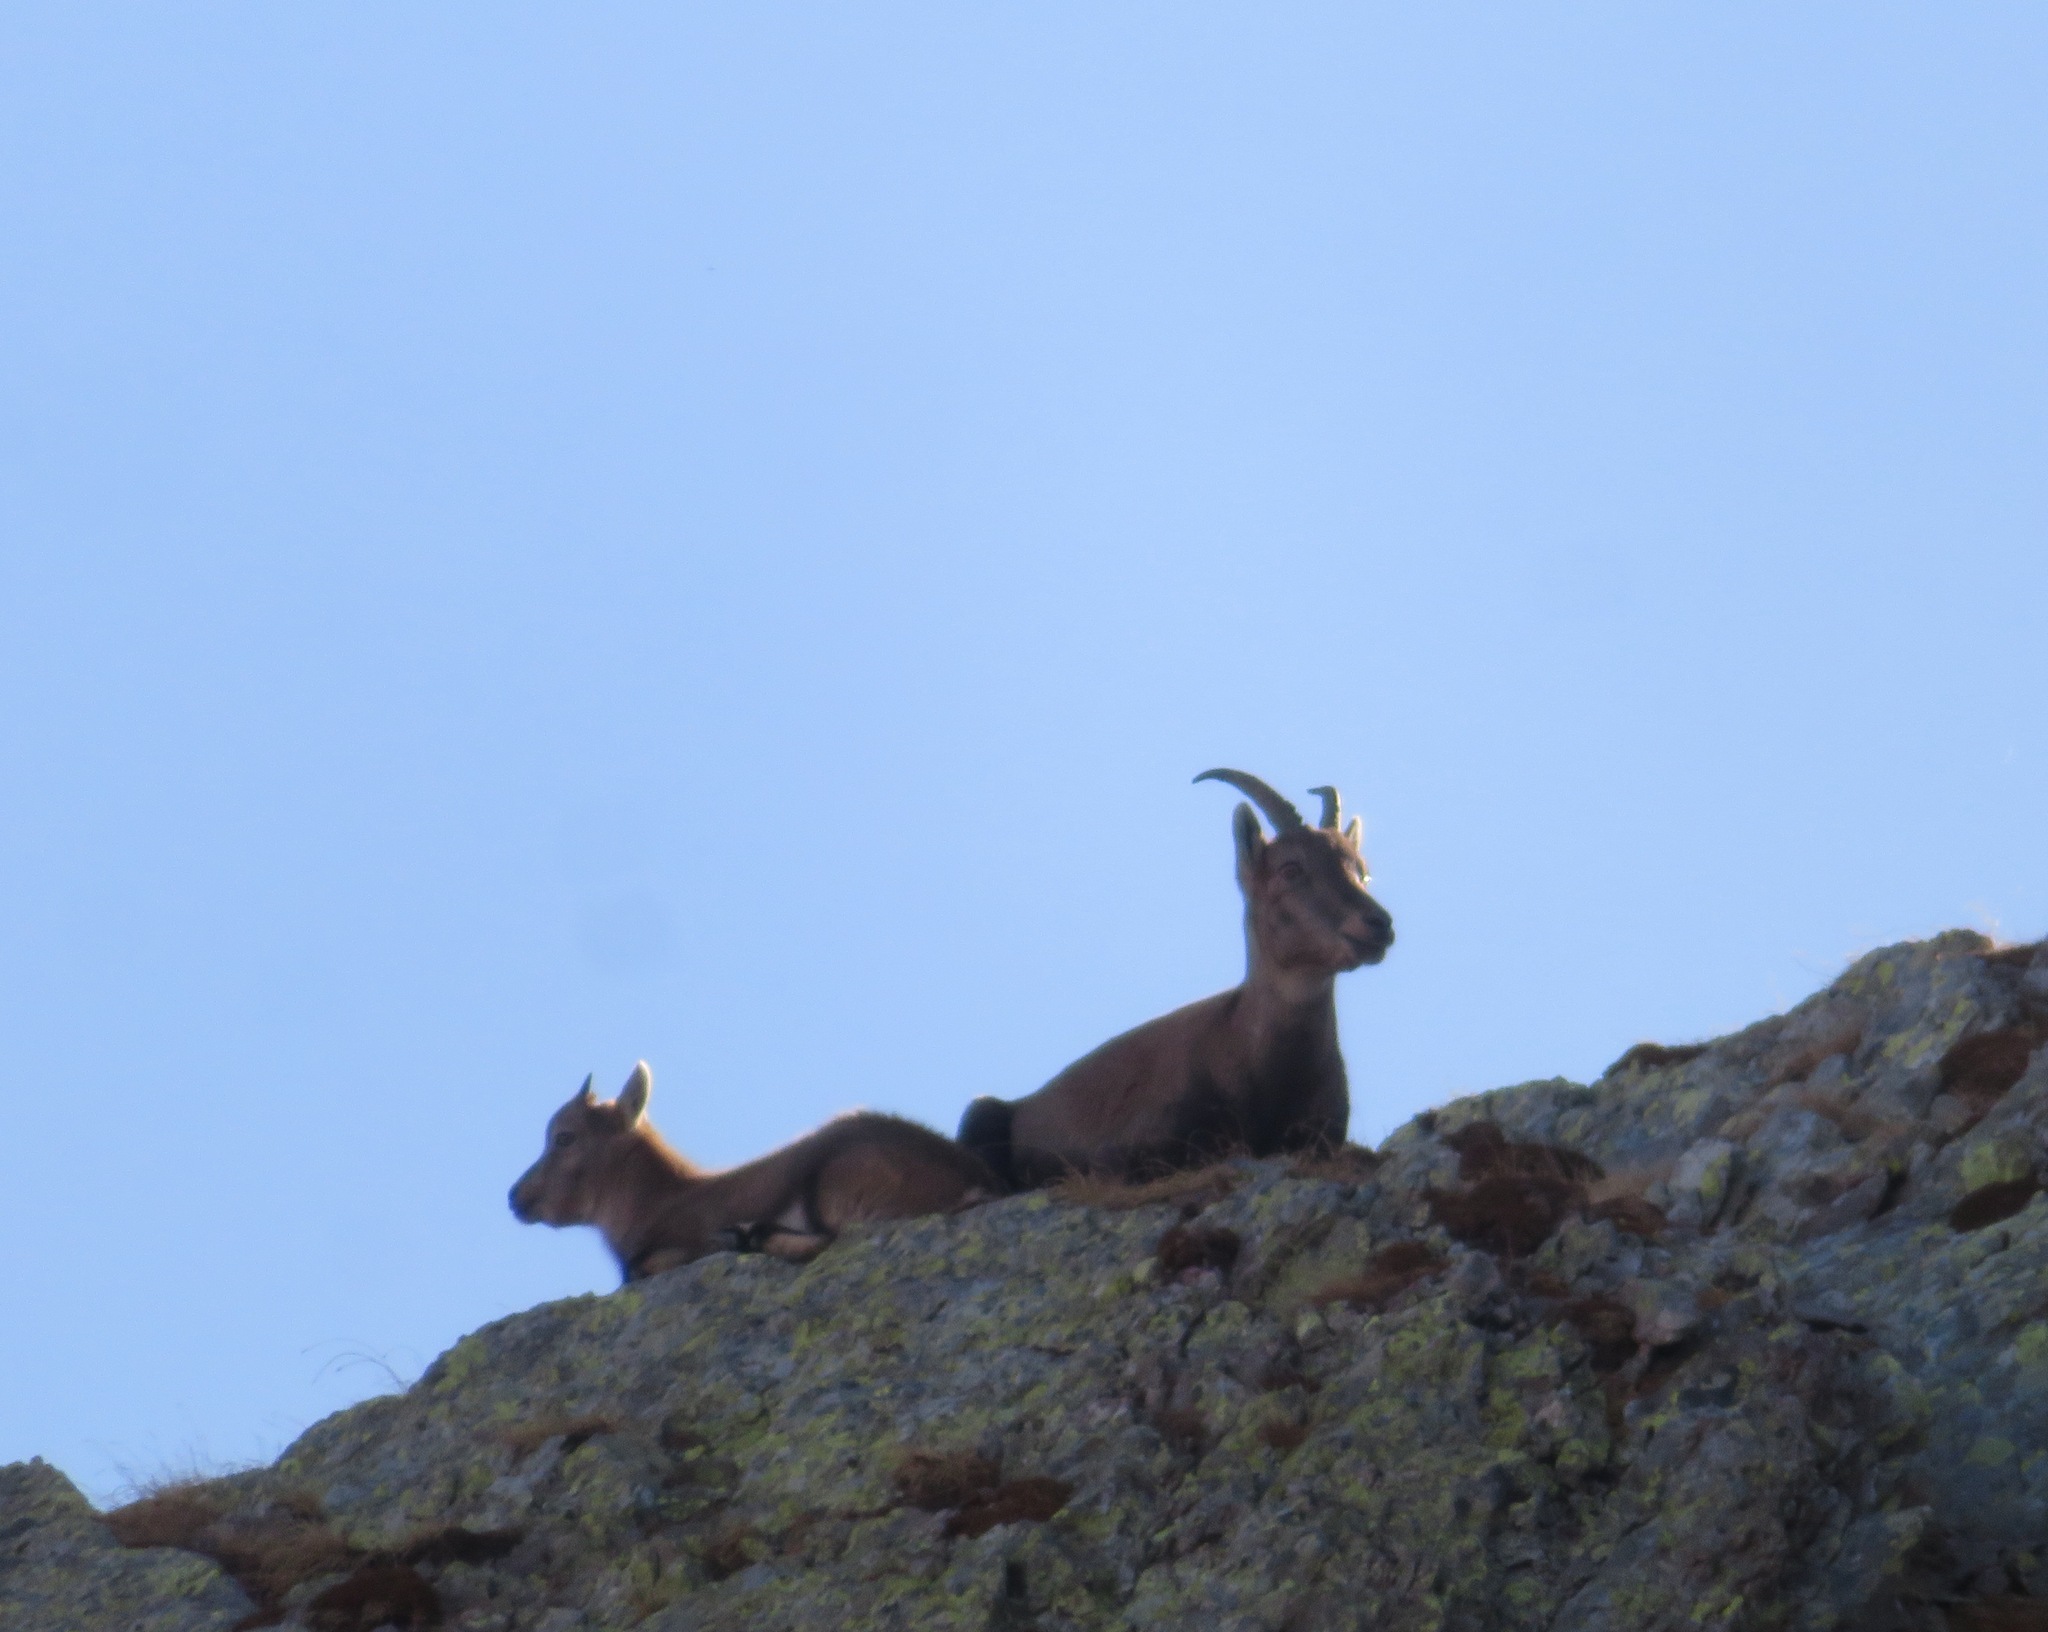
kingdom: Animalia
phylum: Chordata
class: Mammalia
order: Artiodactyla
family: Bovidae
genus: Capra
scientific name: Capra ibex
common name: Alpine ibex
